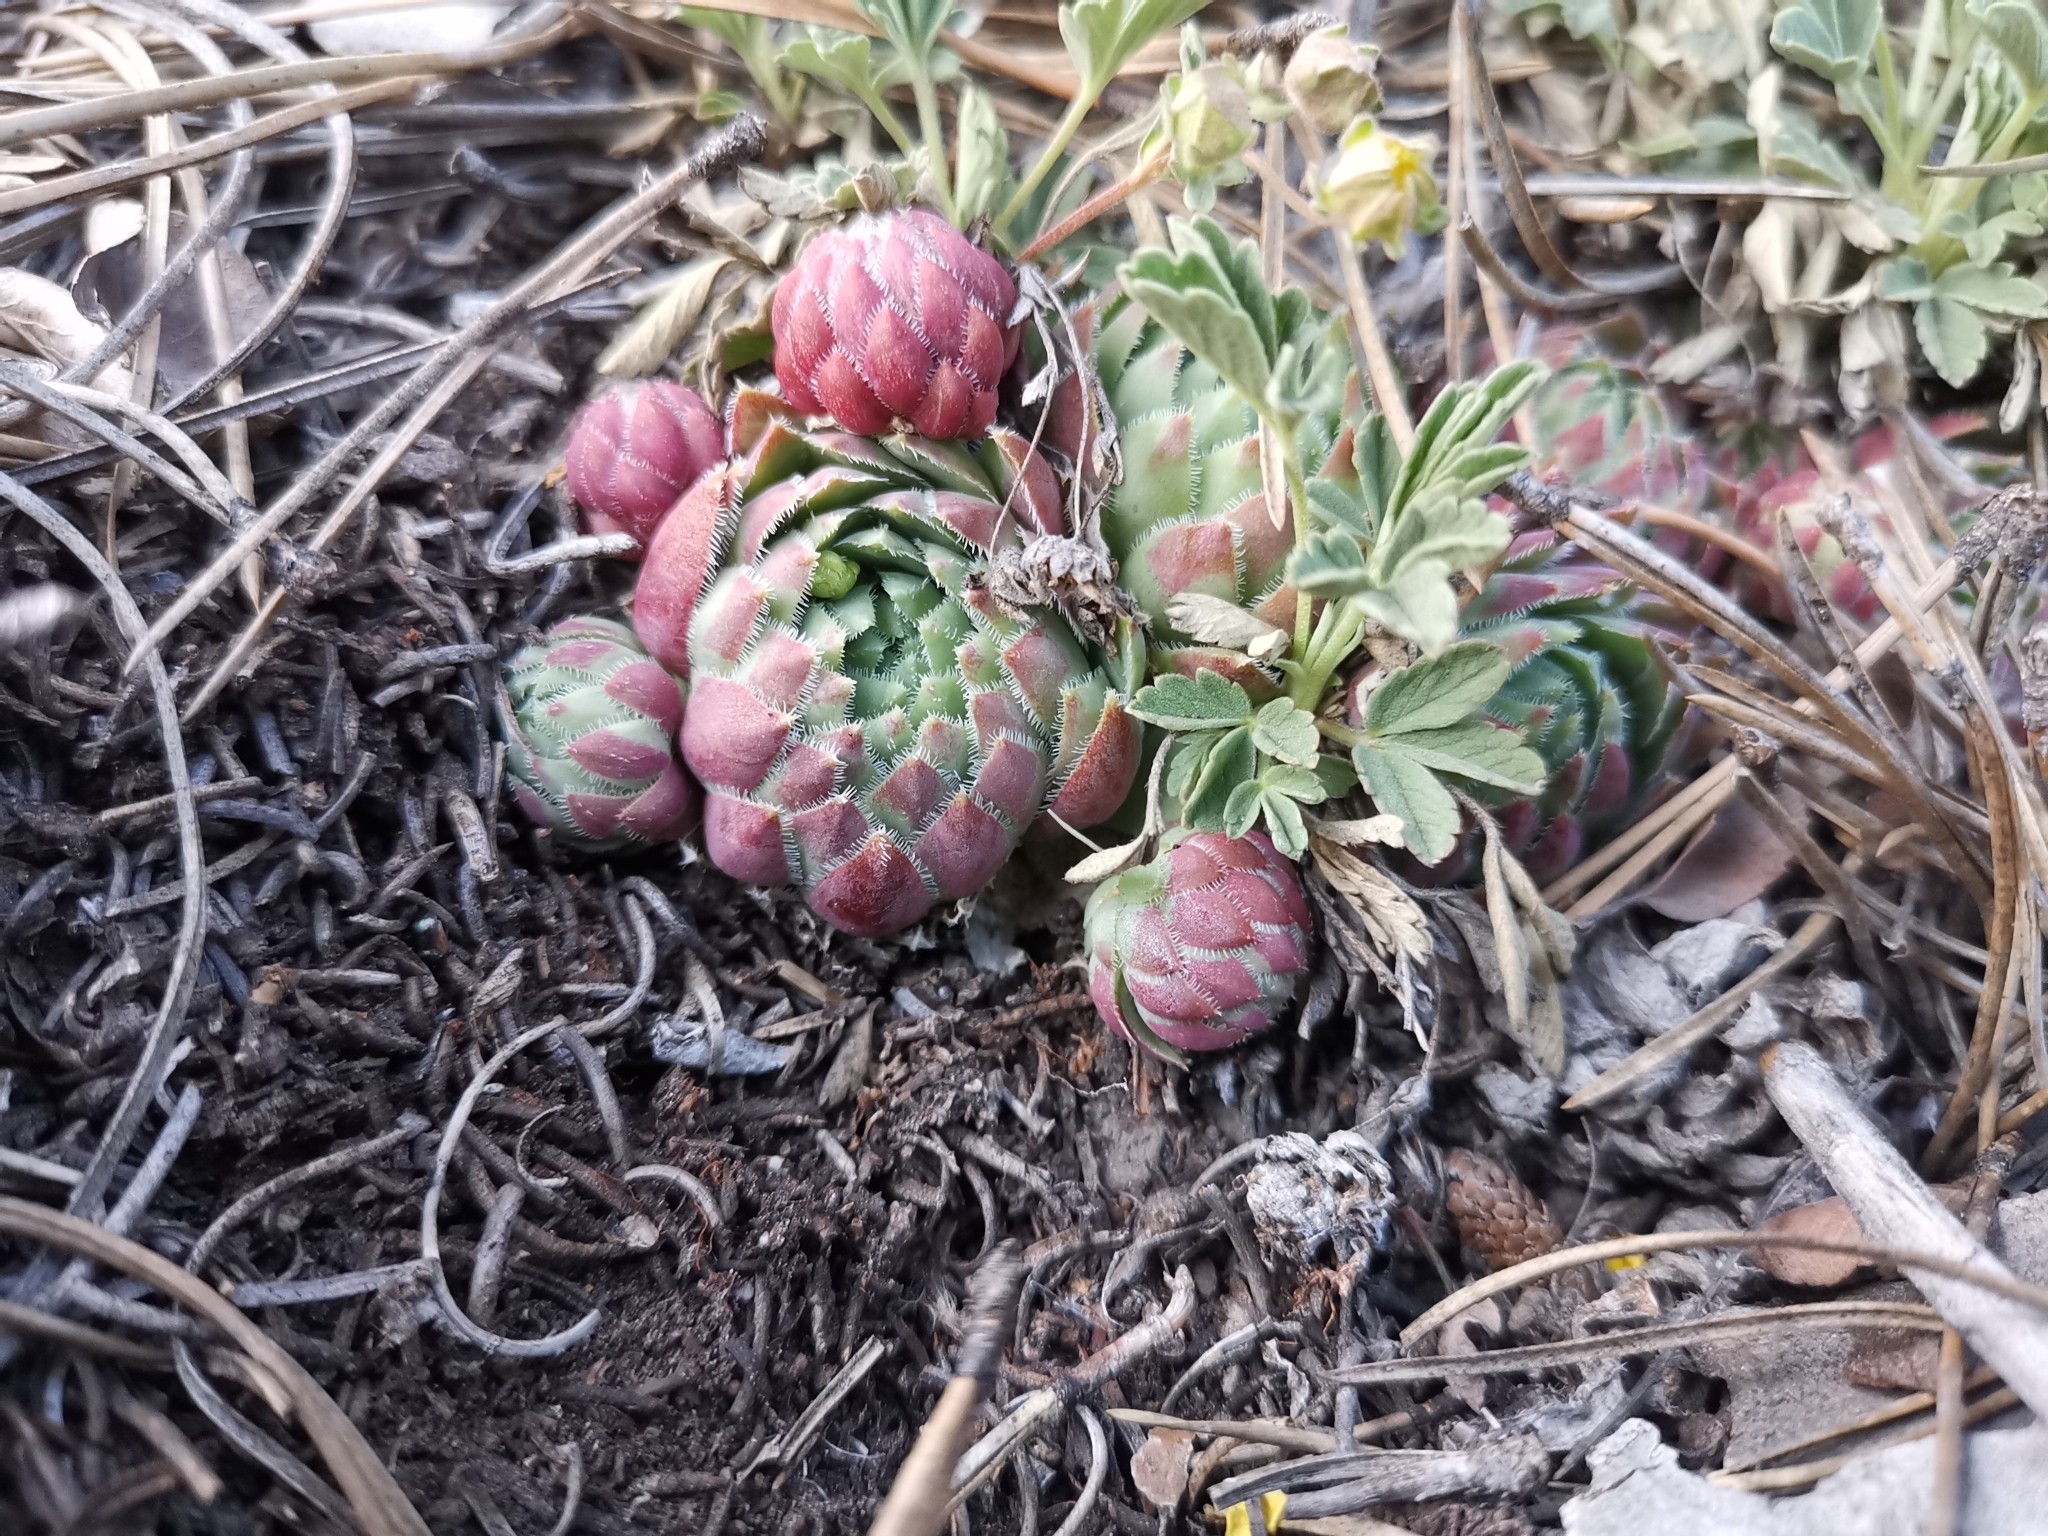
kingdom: Plantae
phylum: Tracheophyta
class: Magnoliopsida
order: Saxifragales
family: Crassulaceae
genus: Sempervivum
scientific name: Sempervivum globiferum
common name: Rolling hen-and-chicks
